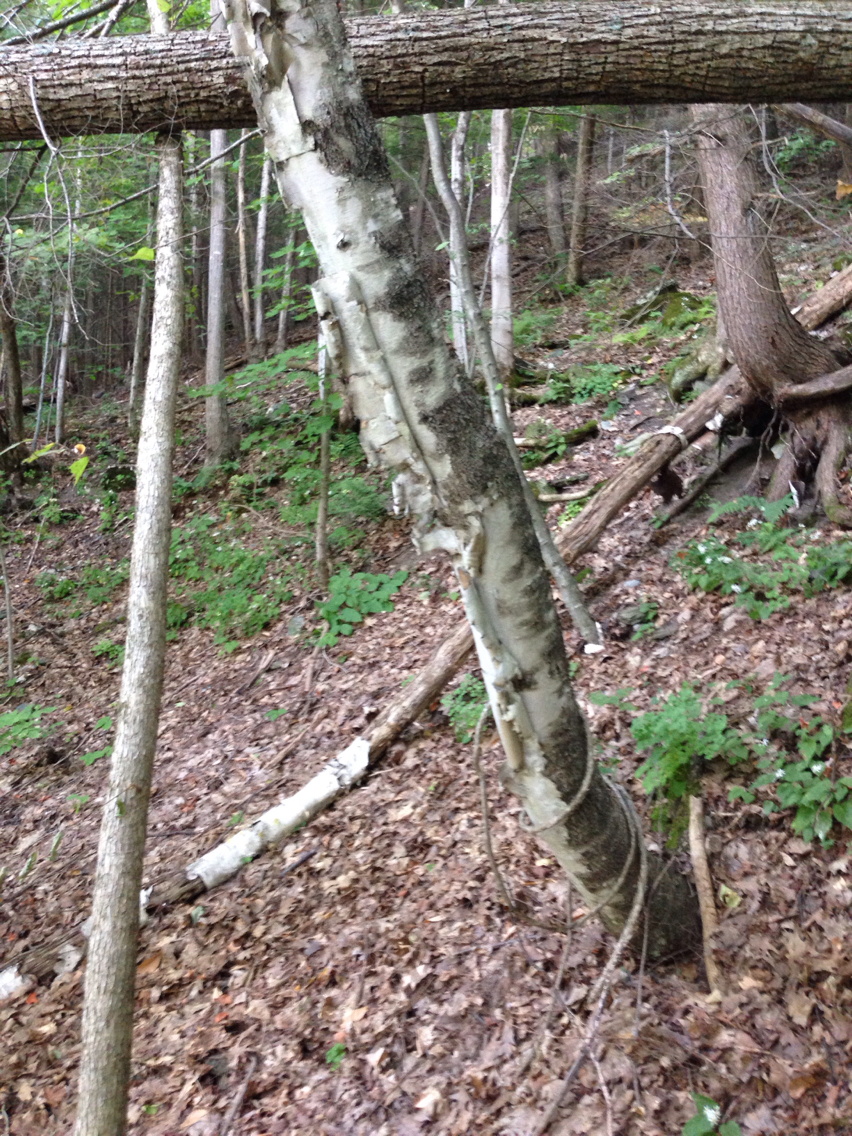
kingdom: Plantae
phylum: Tracheophyta
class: Magnoliopsida
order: Fagales
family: Betulaceae
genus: Betula
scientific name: Betula papyrifera
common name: Paper birch
